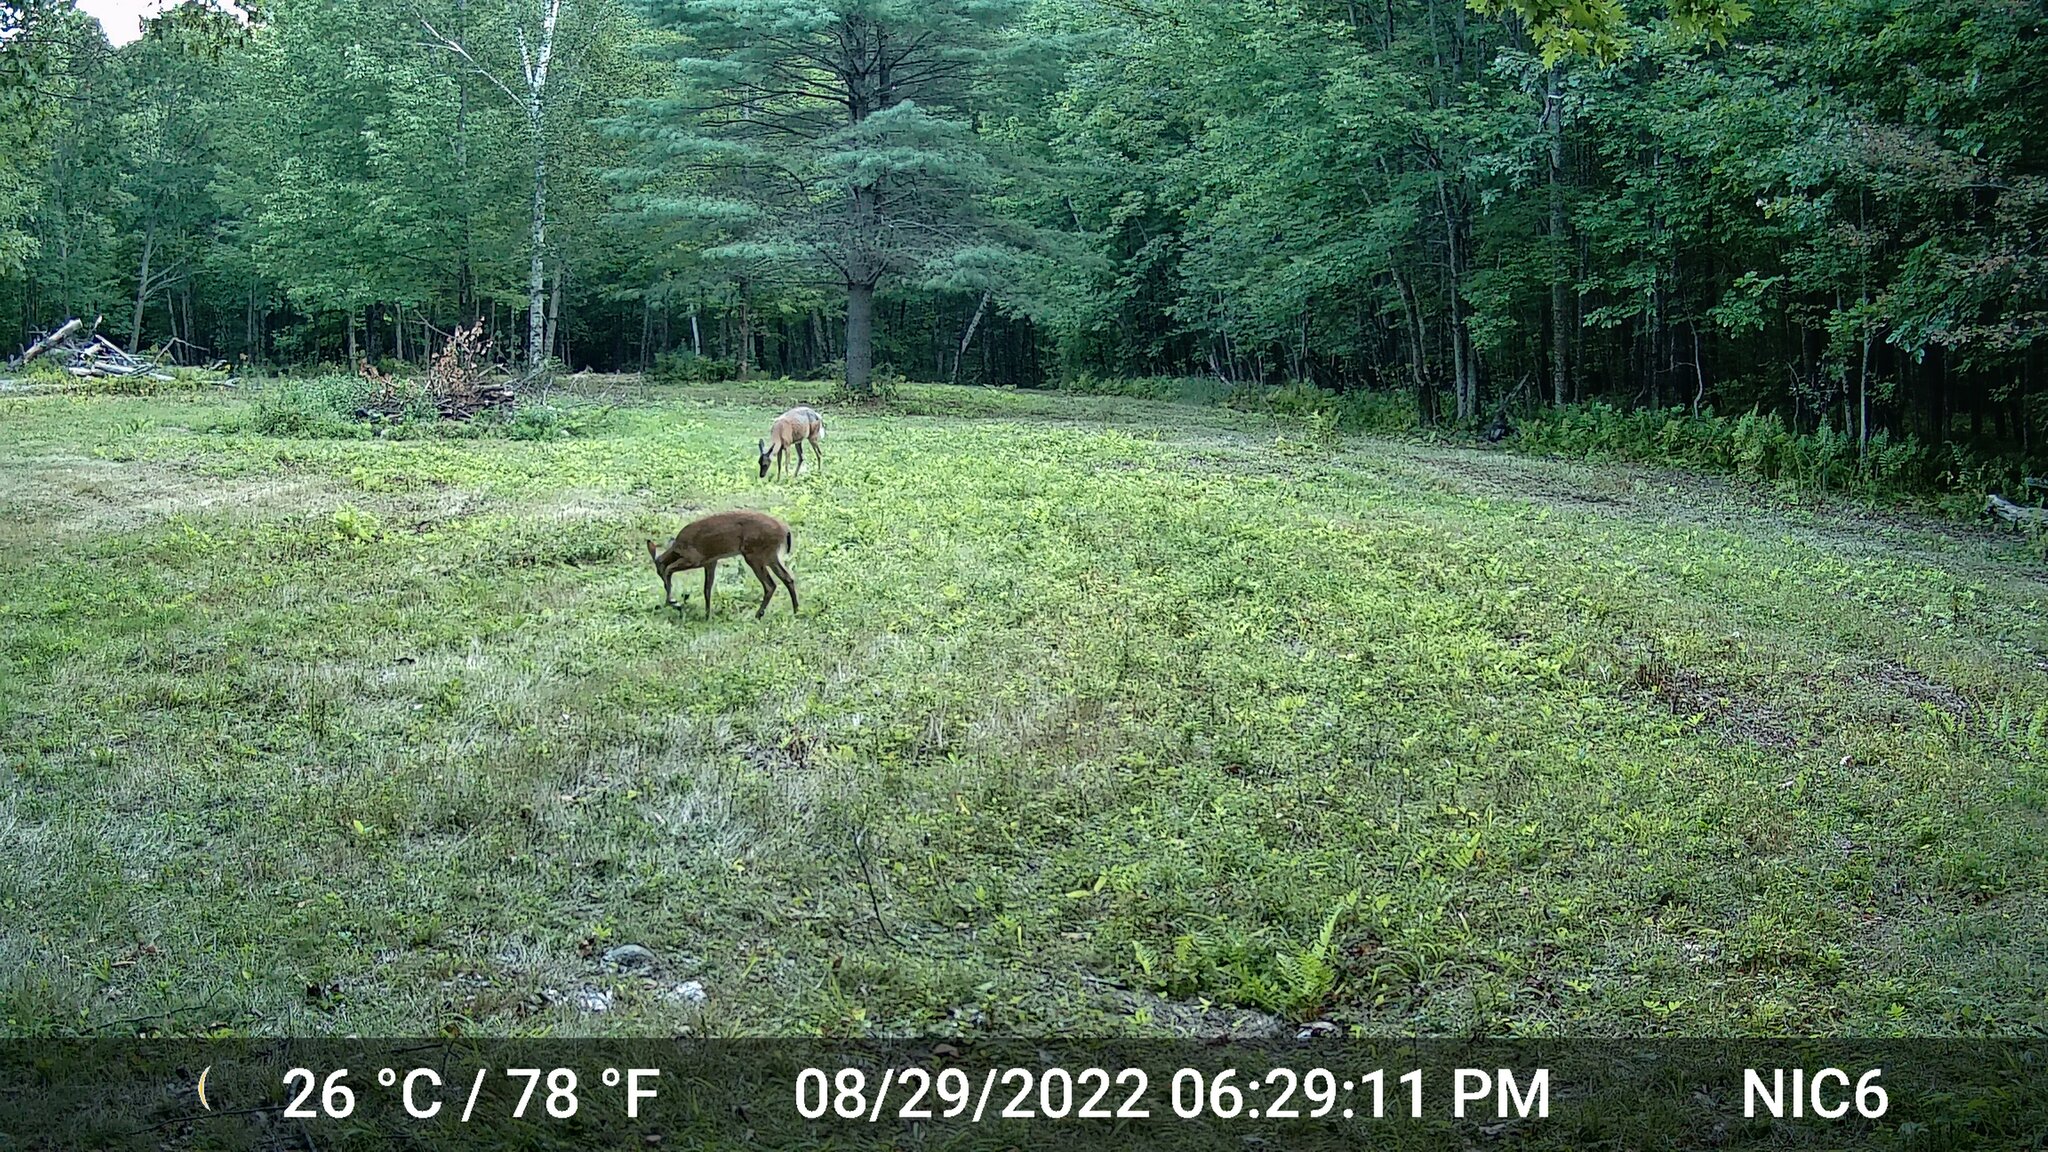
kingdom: Animalia
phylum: Chordata
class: Mammalia
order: Artiodactyla
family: Cervidae
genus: Odocoileus
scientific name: Odocoileus virginianus
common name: White-tailed deer
